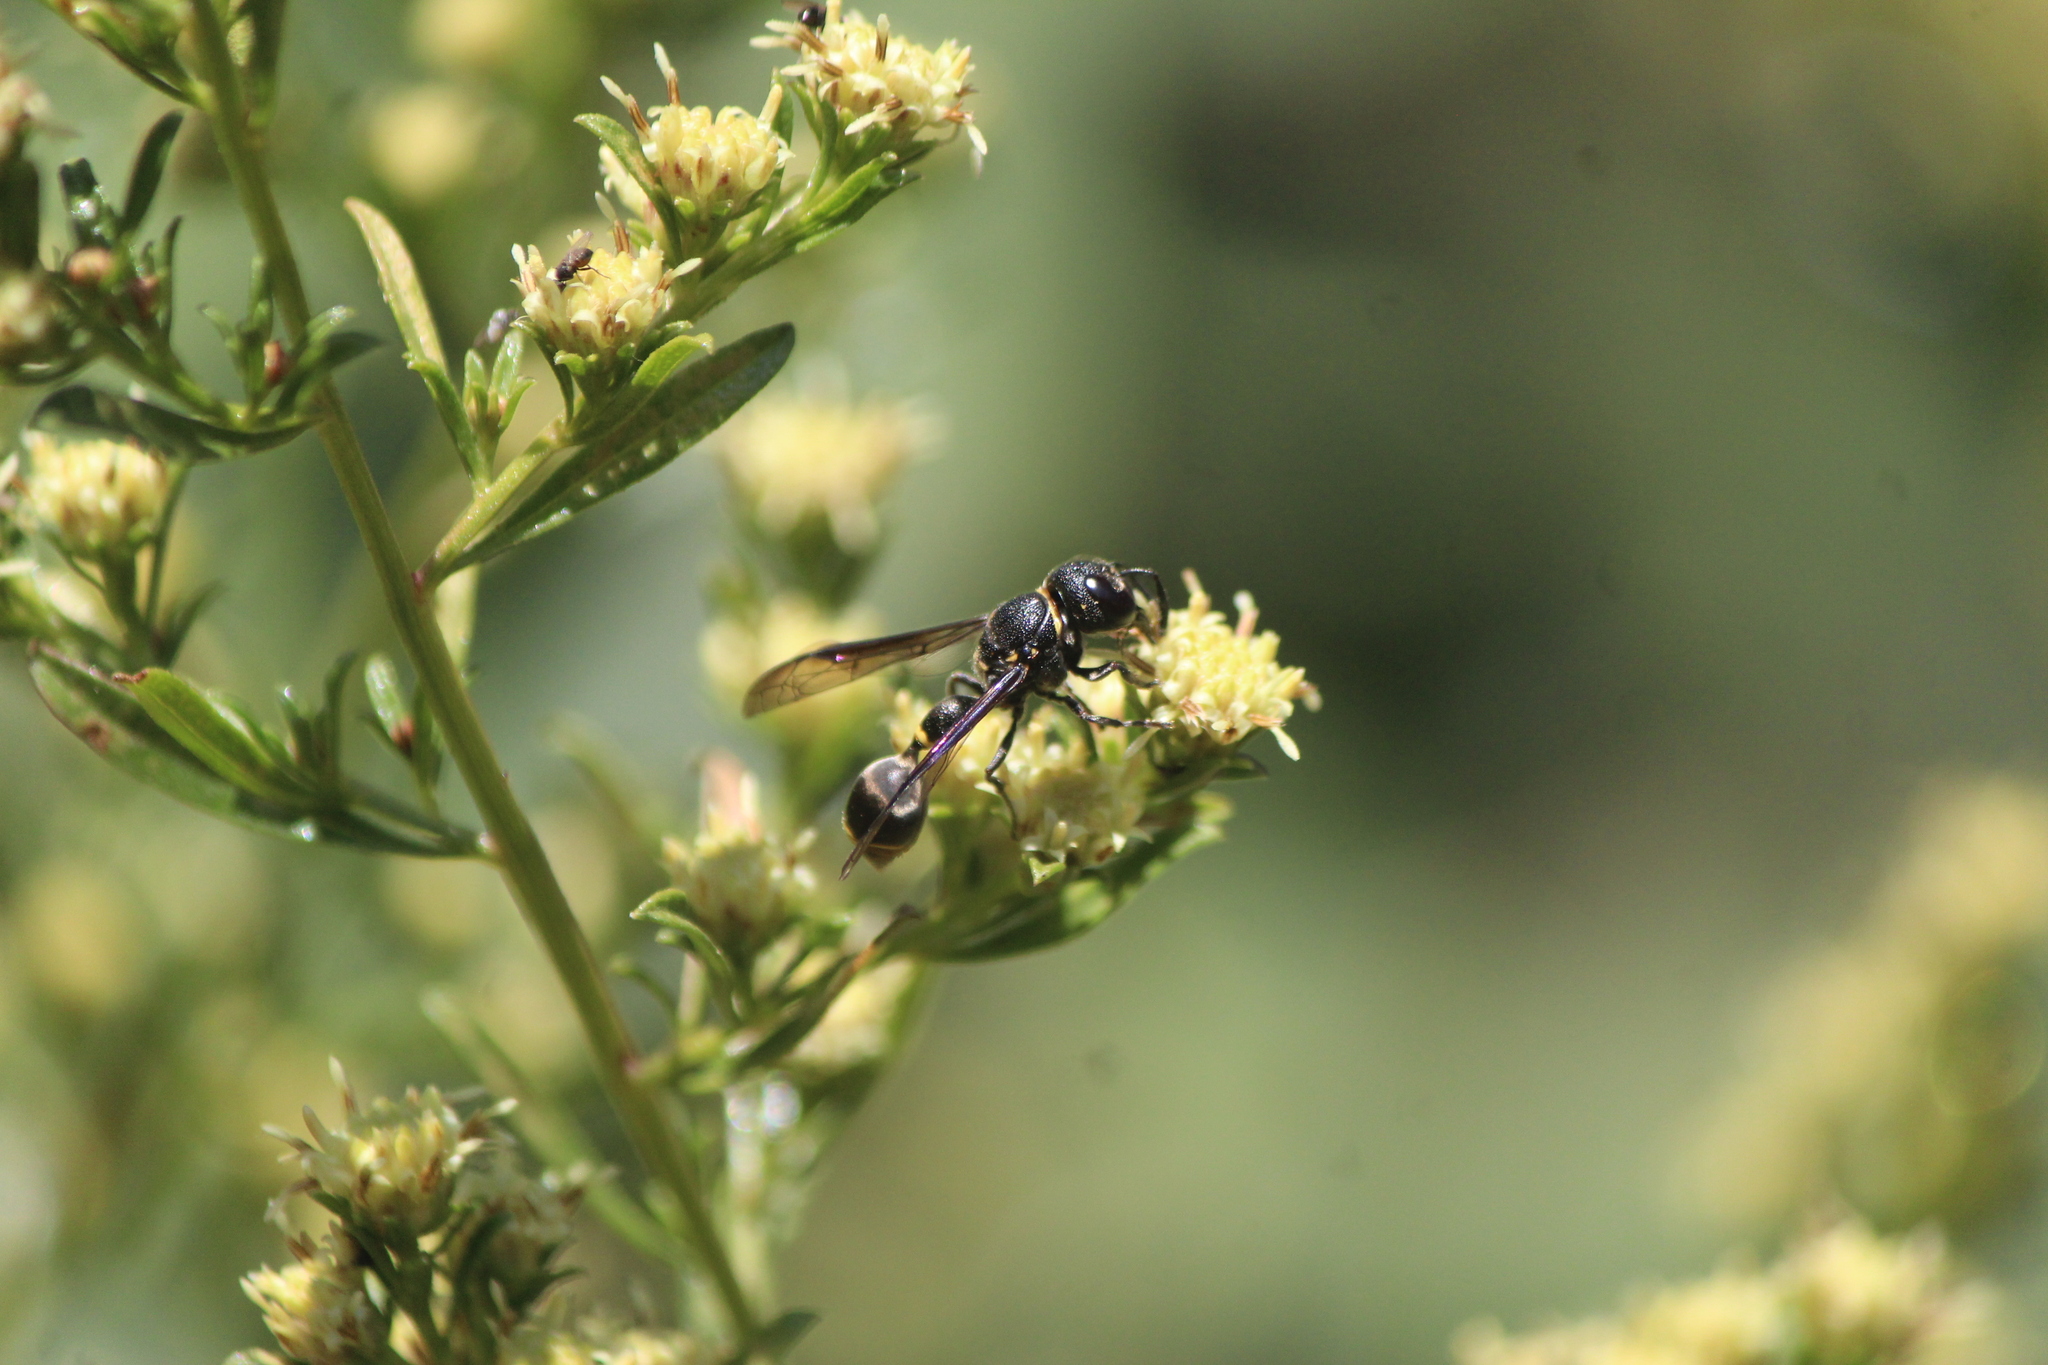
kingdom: Animalia
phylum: Arthropoda
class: Insecta
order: Hymenoptera
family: Eumenidae
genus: Zethus
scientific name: Zethus nigricornis
